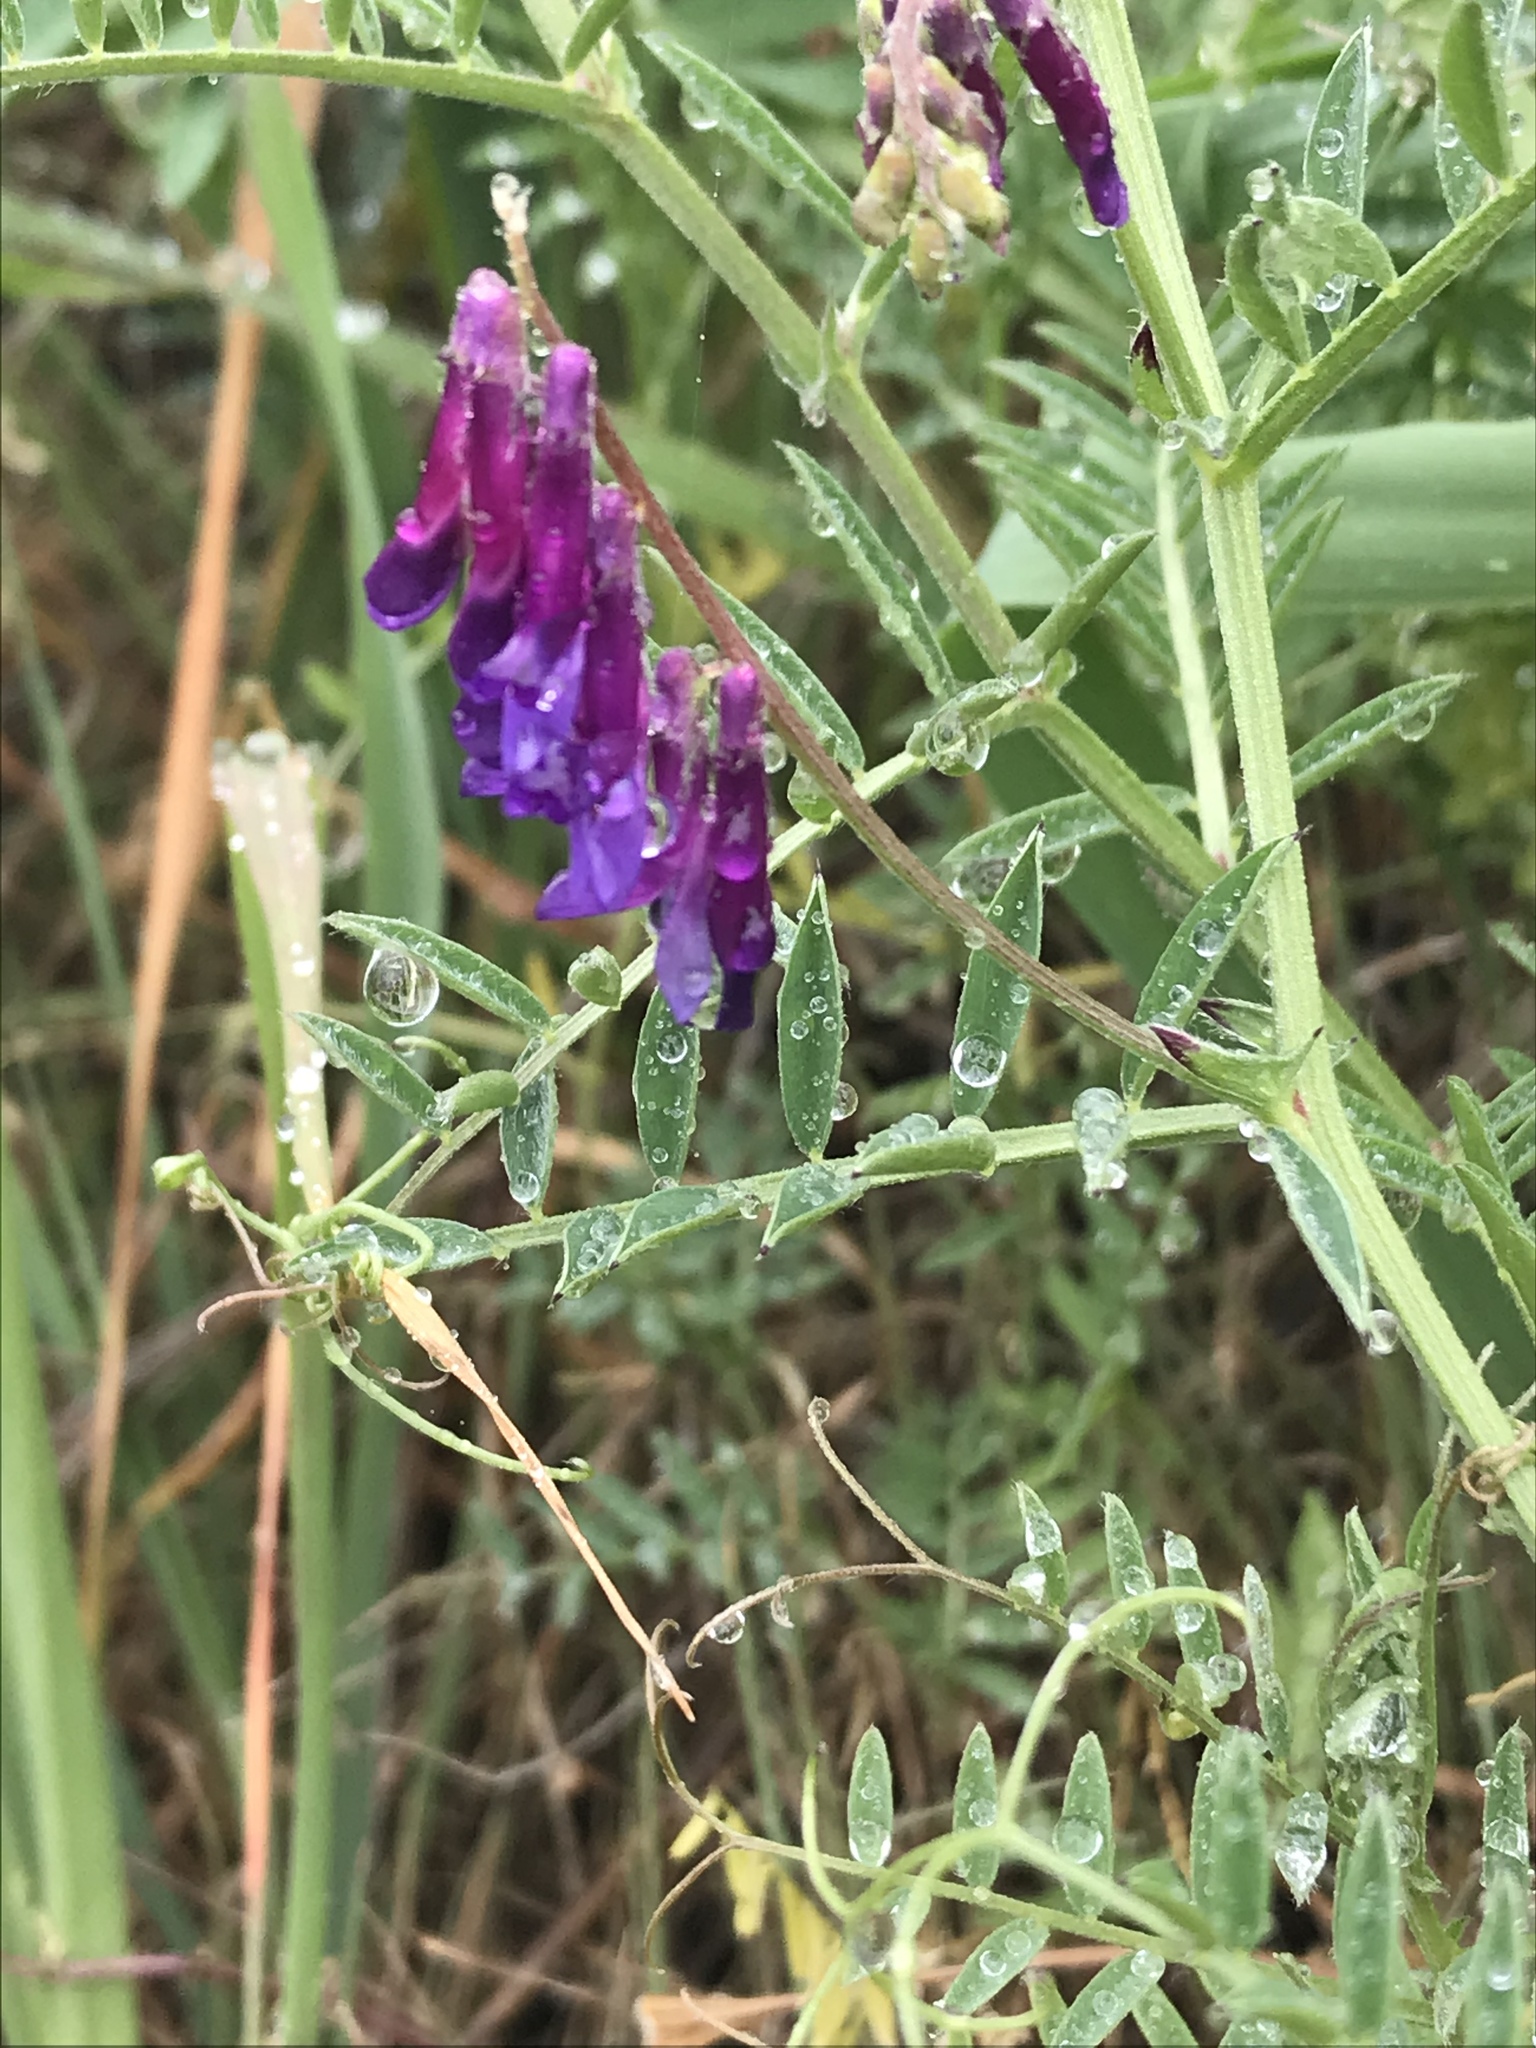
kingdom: Plantae
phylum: Tracheophyta
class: Magnoliopsida
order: Fabales
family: Fabaceae
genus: Vicia
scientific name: Vicia villosa
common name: Fodder vetch
